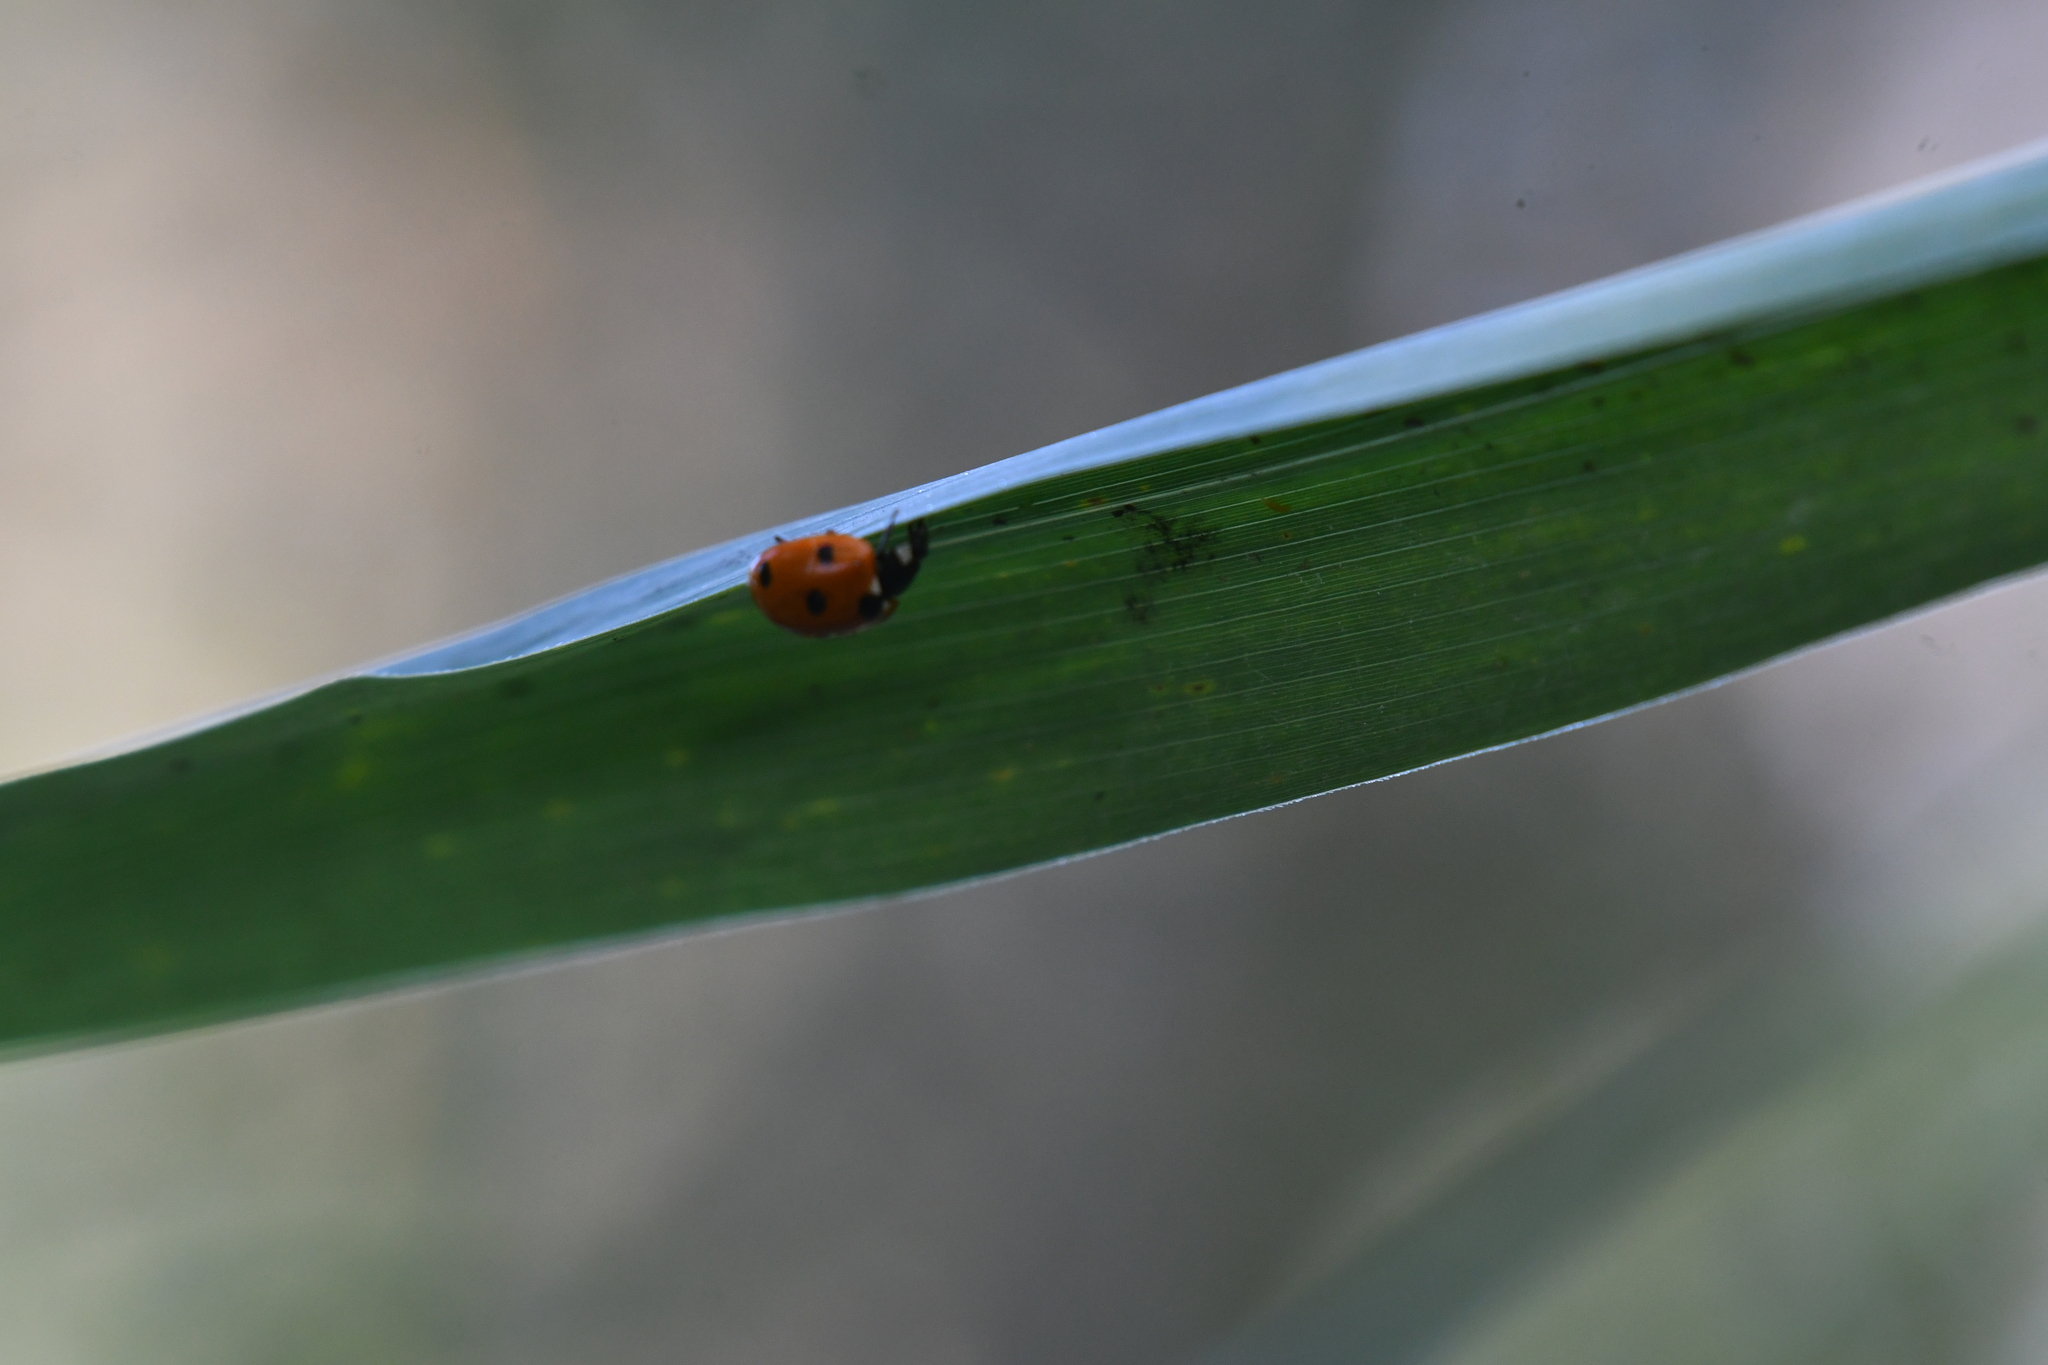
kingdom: Animalia
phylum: Arthropoda
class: Insecta
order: Coleoptera
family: Coccinellidae
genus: Coccinella
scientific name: Coccinella septempunctata
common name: Sevenspotted lady beetle
